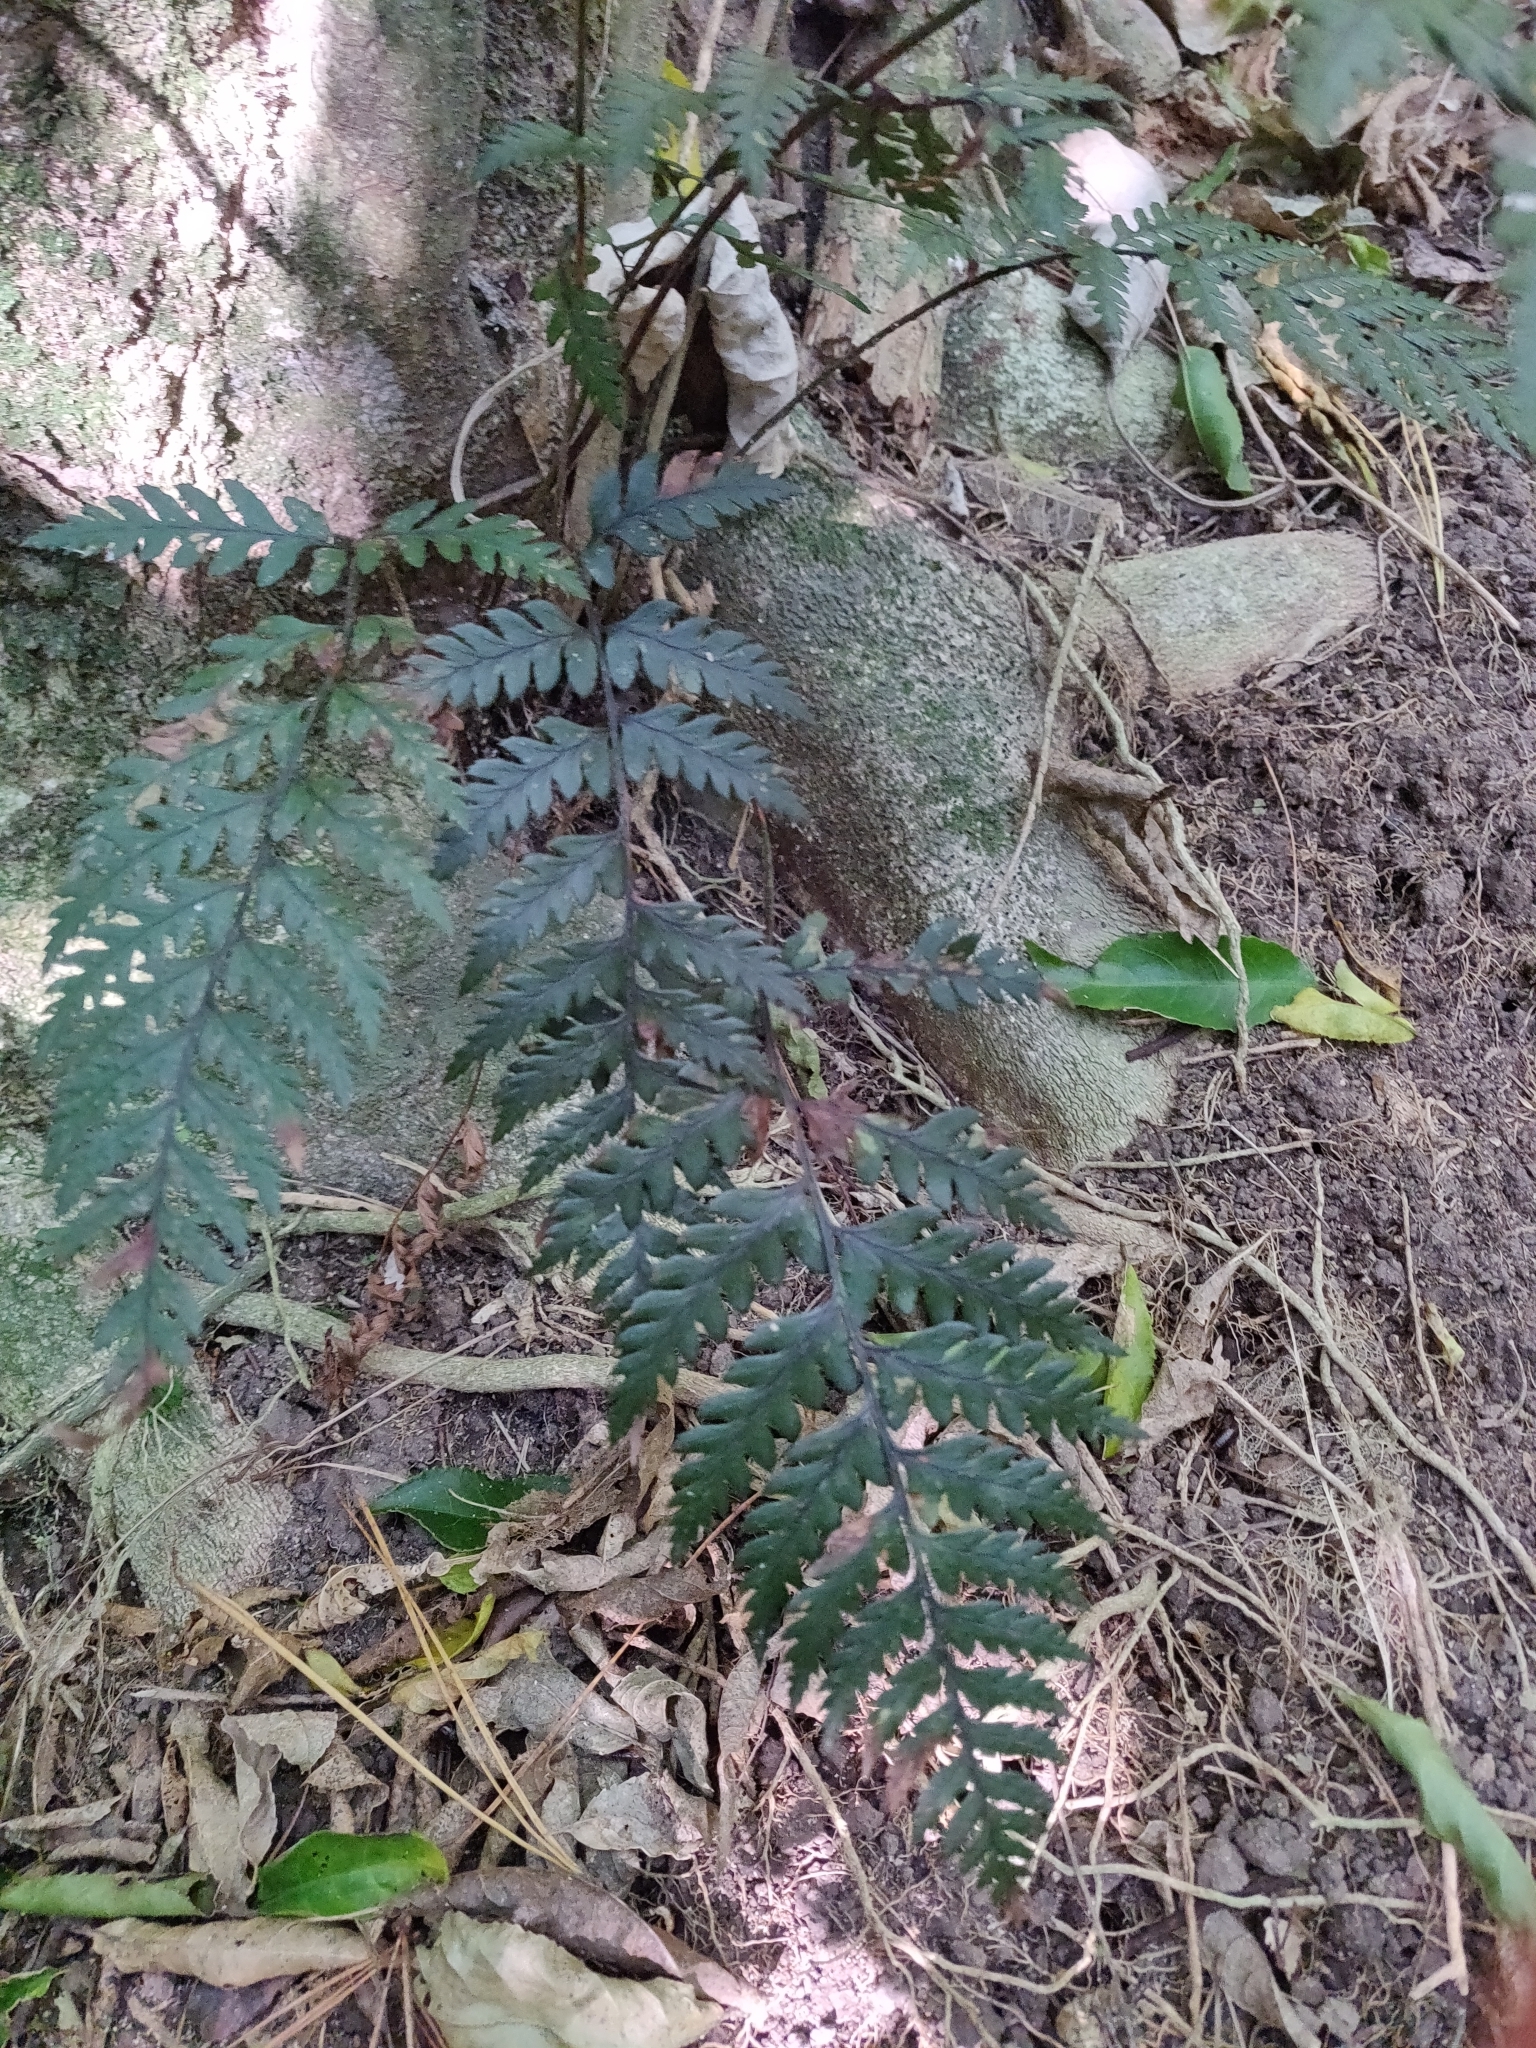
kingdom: Plantae
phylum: Tracheophyta
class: Polypodiopsida
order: Polypodiales
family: Dryopteridaceae
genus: Polystichum
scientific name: Polystichum neozelandicum
